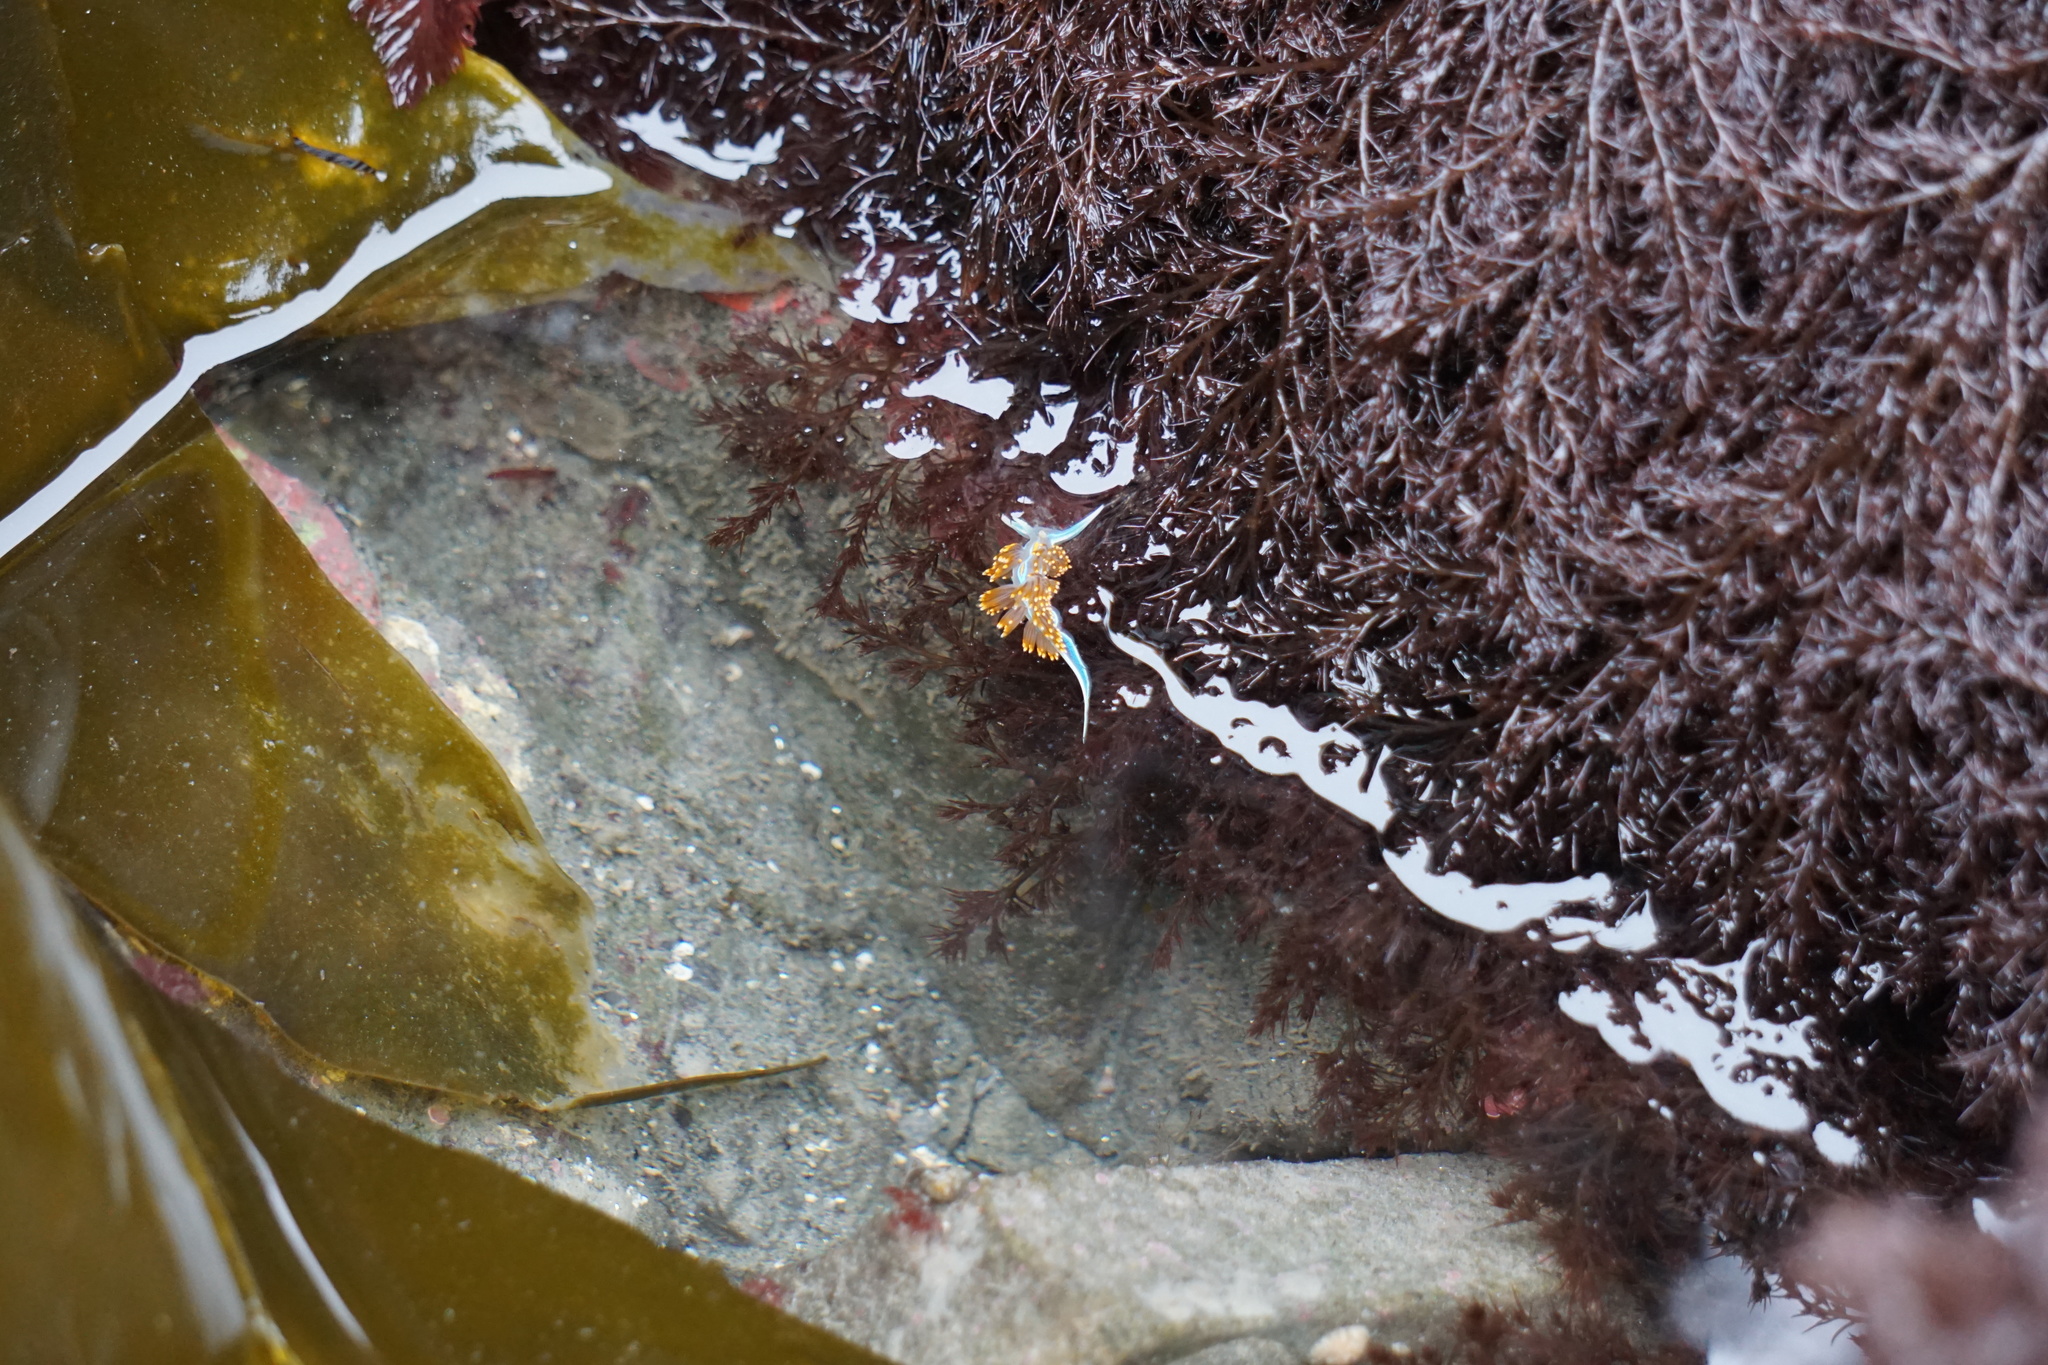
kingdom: Animalia
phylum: Mollusca
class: Gastropoda
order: Nudibranchia
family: Myrrhinidae
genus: Hermissenda
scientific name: Hermissenda opalescens
